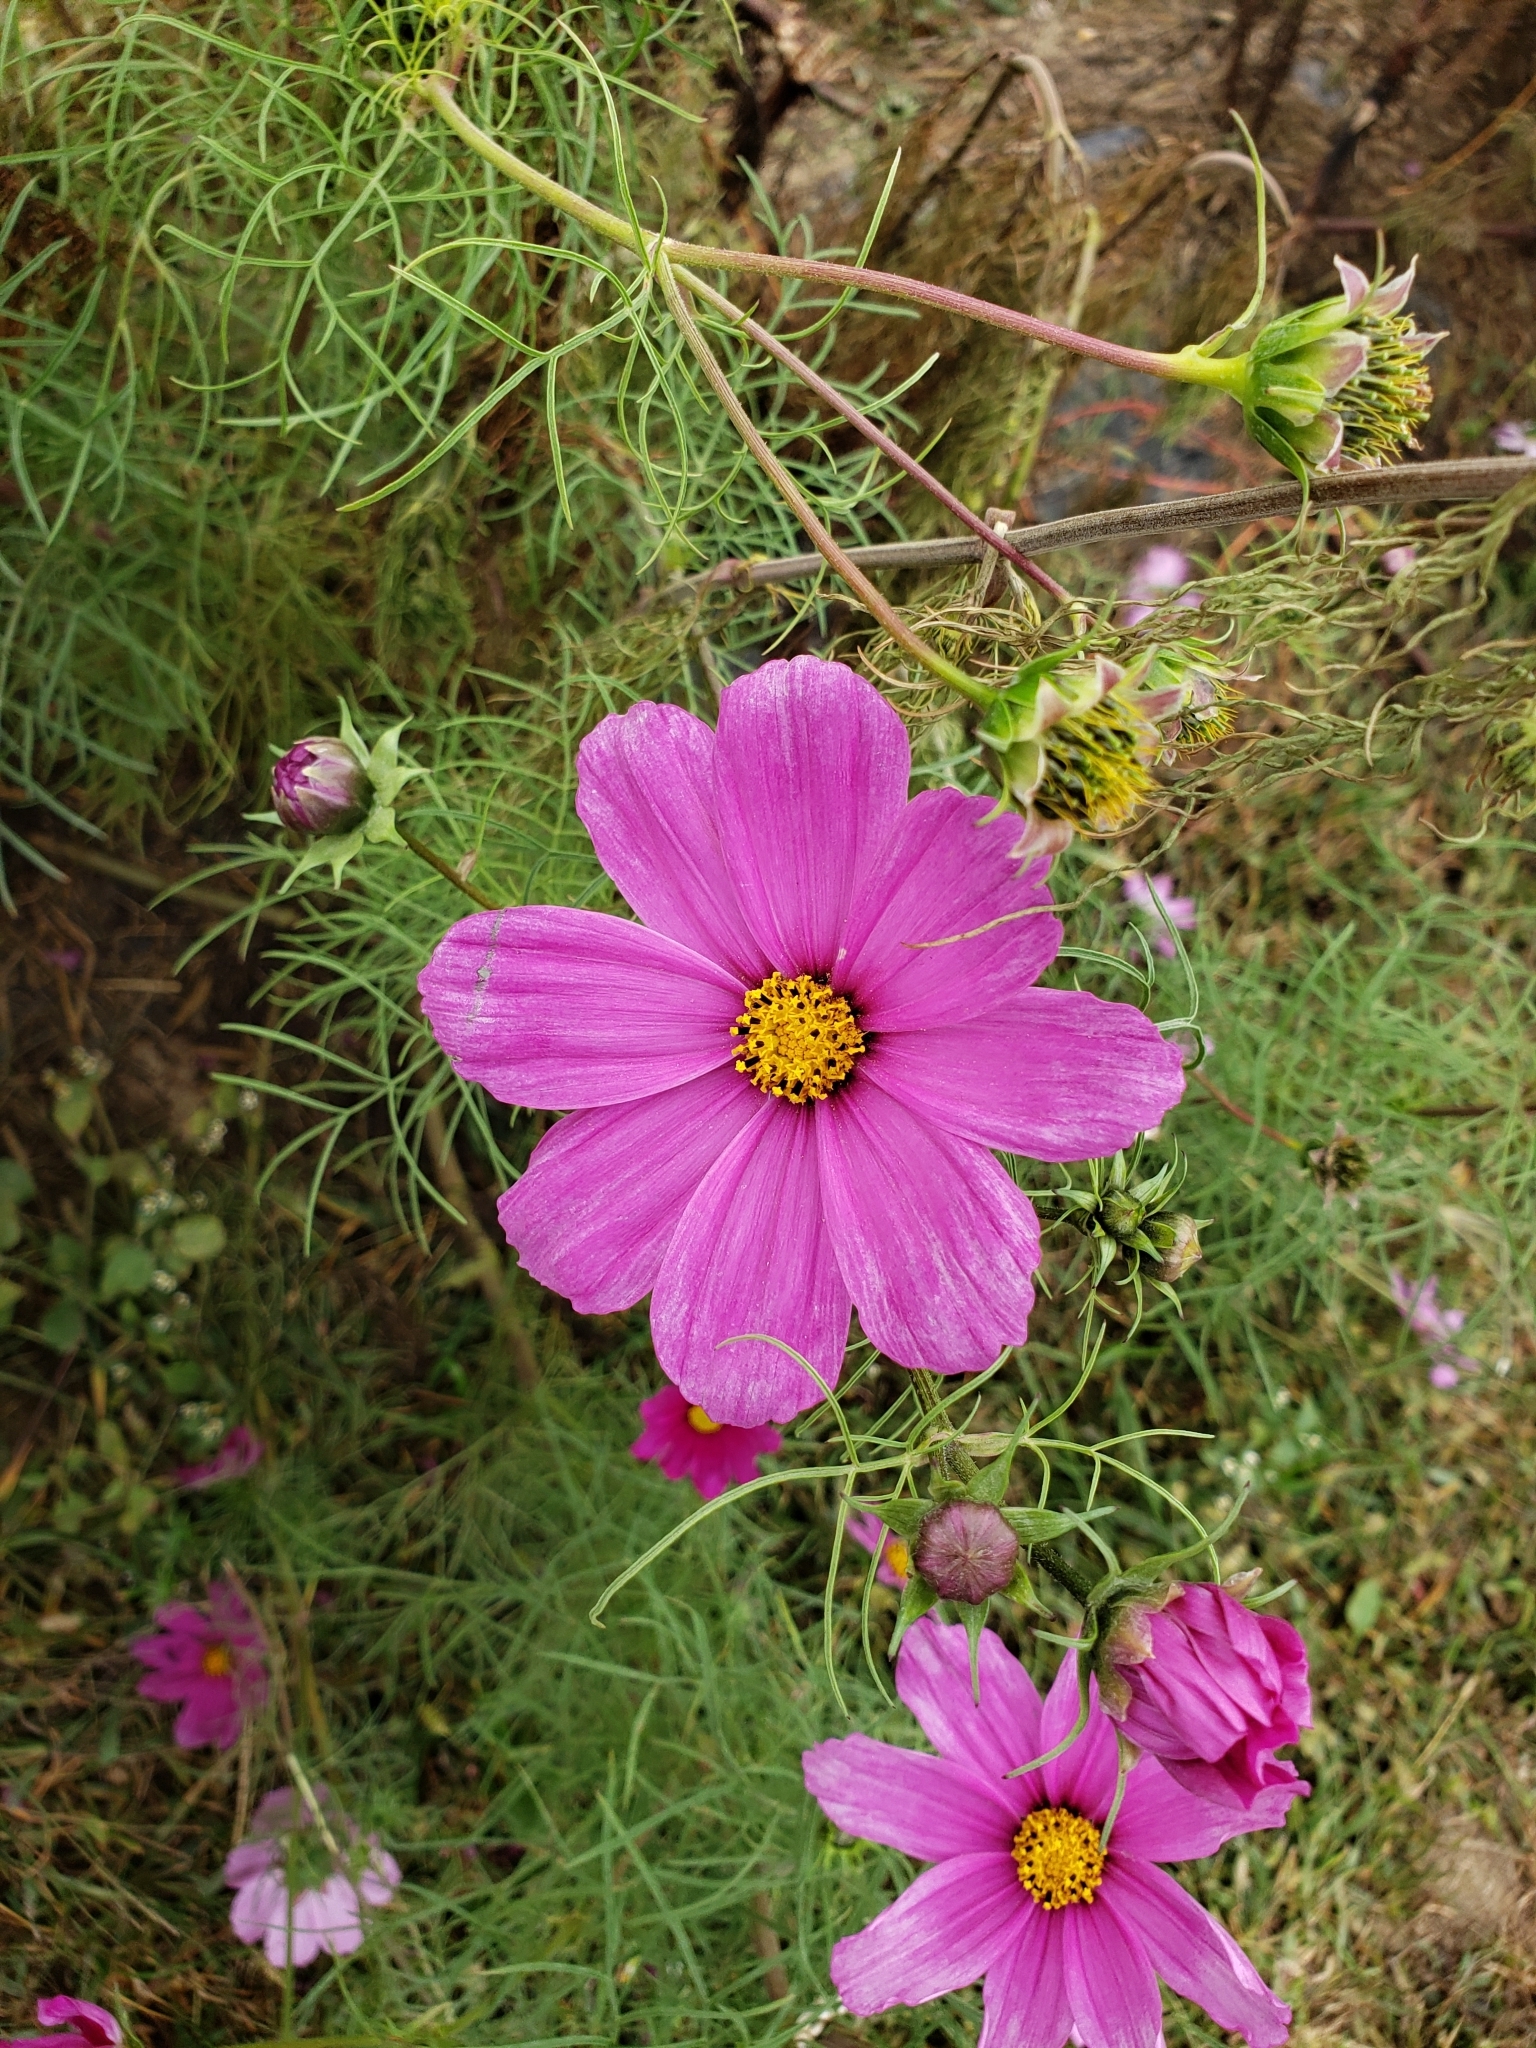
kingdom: Plantae
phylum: Tracheophyta
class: Magnoliopsida
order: Asterales
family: Asteraceae
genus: Cosmos
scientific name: Cosmos bipinnatus
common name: Garden cosmos
